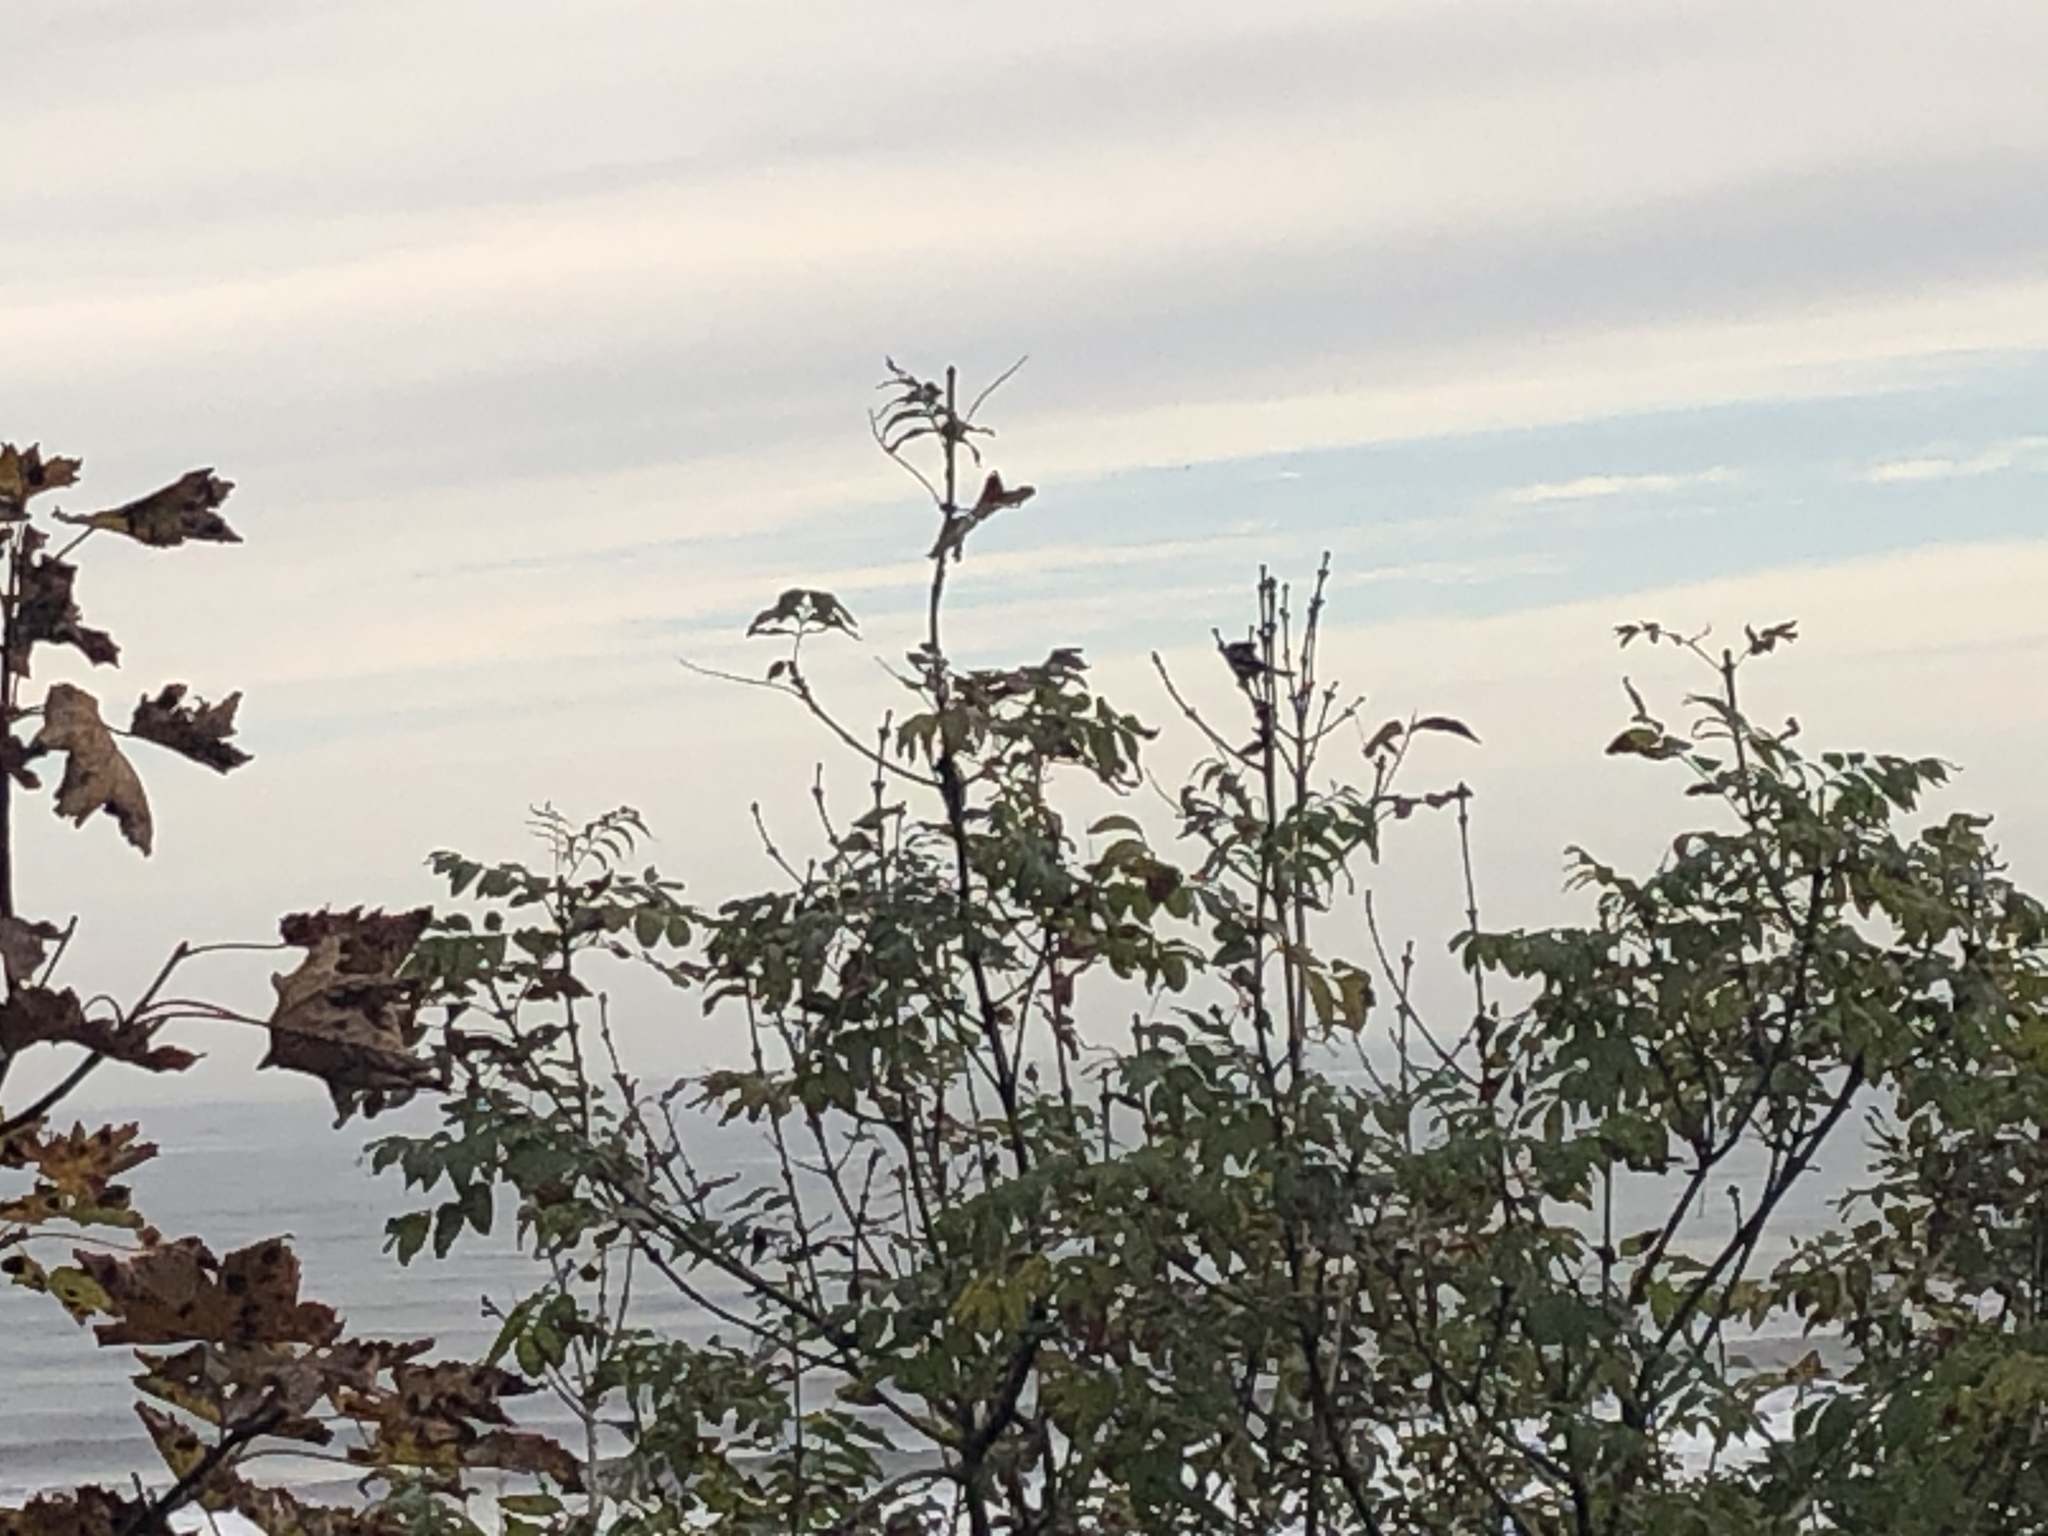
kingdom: Animalia
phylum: Chordata
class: Aves
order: Passeriformes
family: Aegithalidae
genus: Aegithalos
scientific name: Aegithalos caudatus
